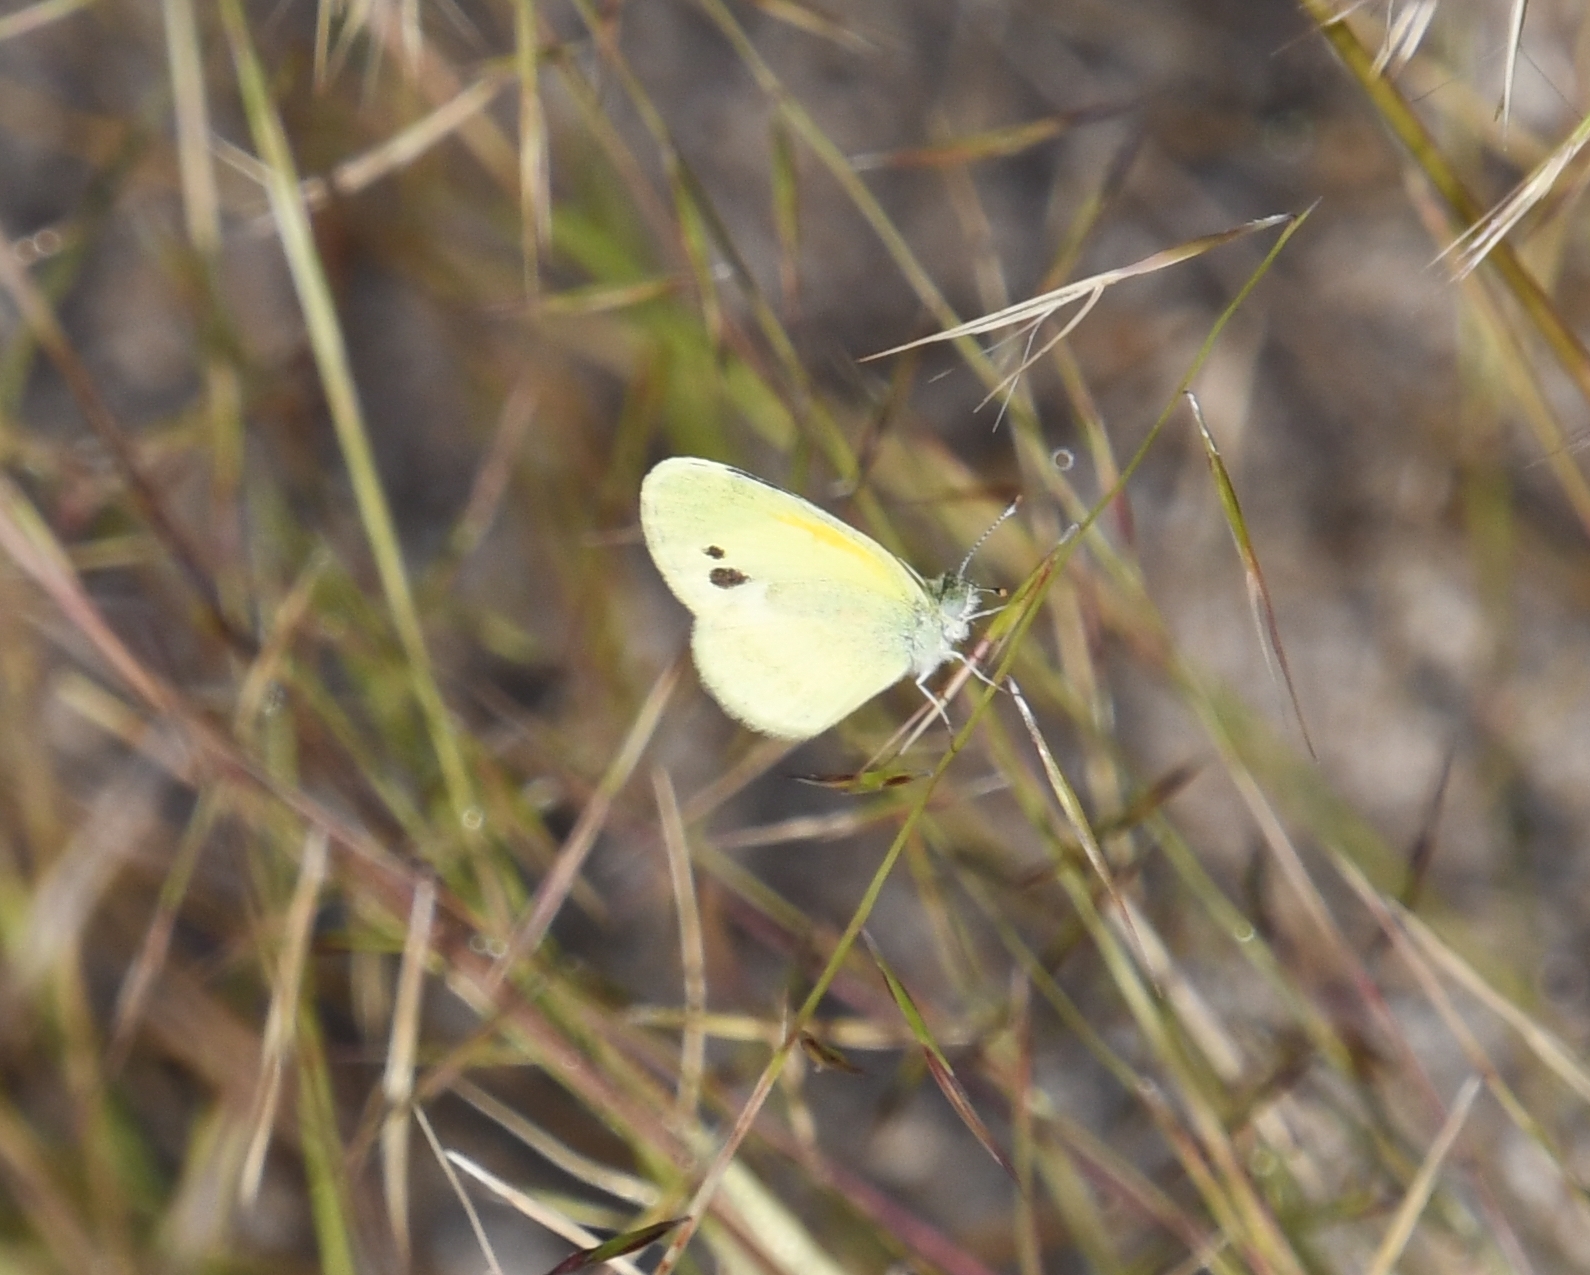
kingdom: Animalia
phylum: Arthropoda
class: Insecta
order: Lepidoptera
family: Pieridae
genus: Nathalis
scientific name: Nathalis iole
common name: Dainty sulphur
